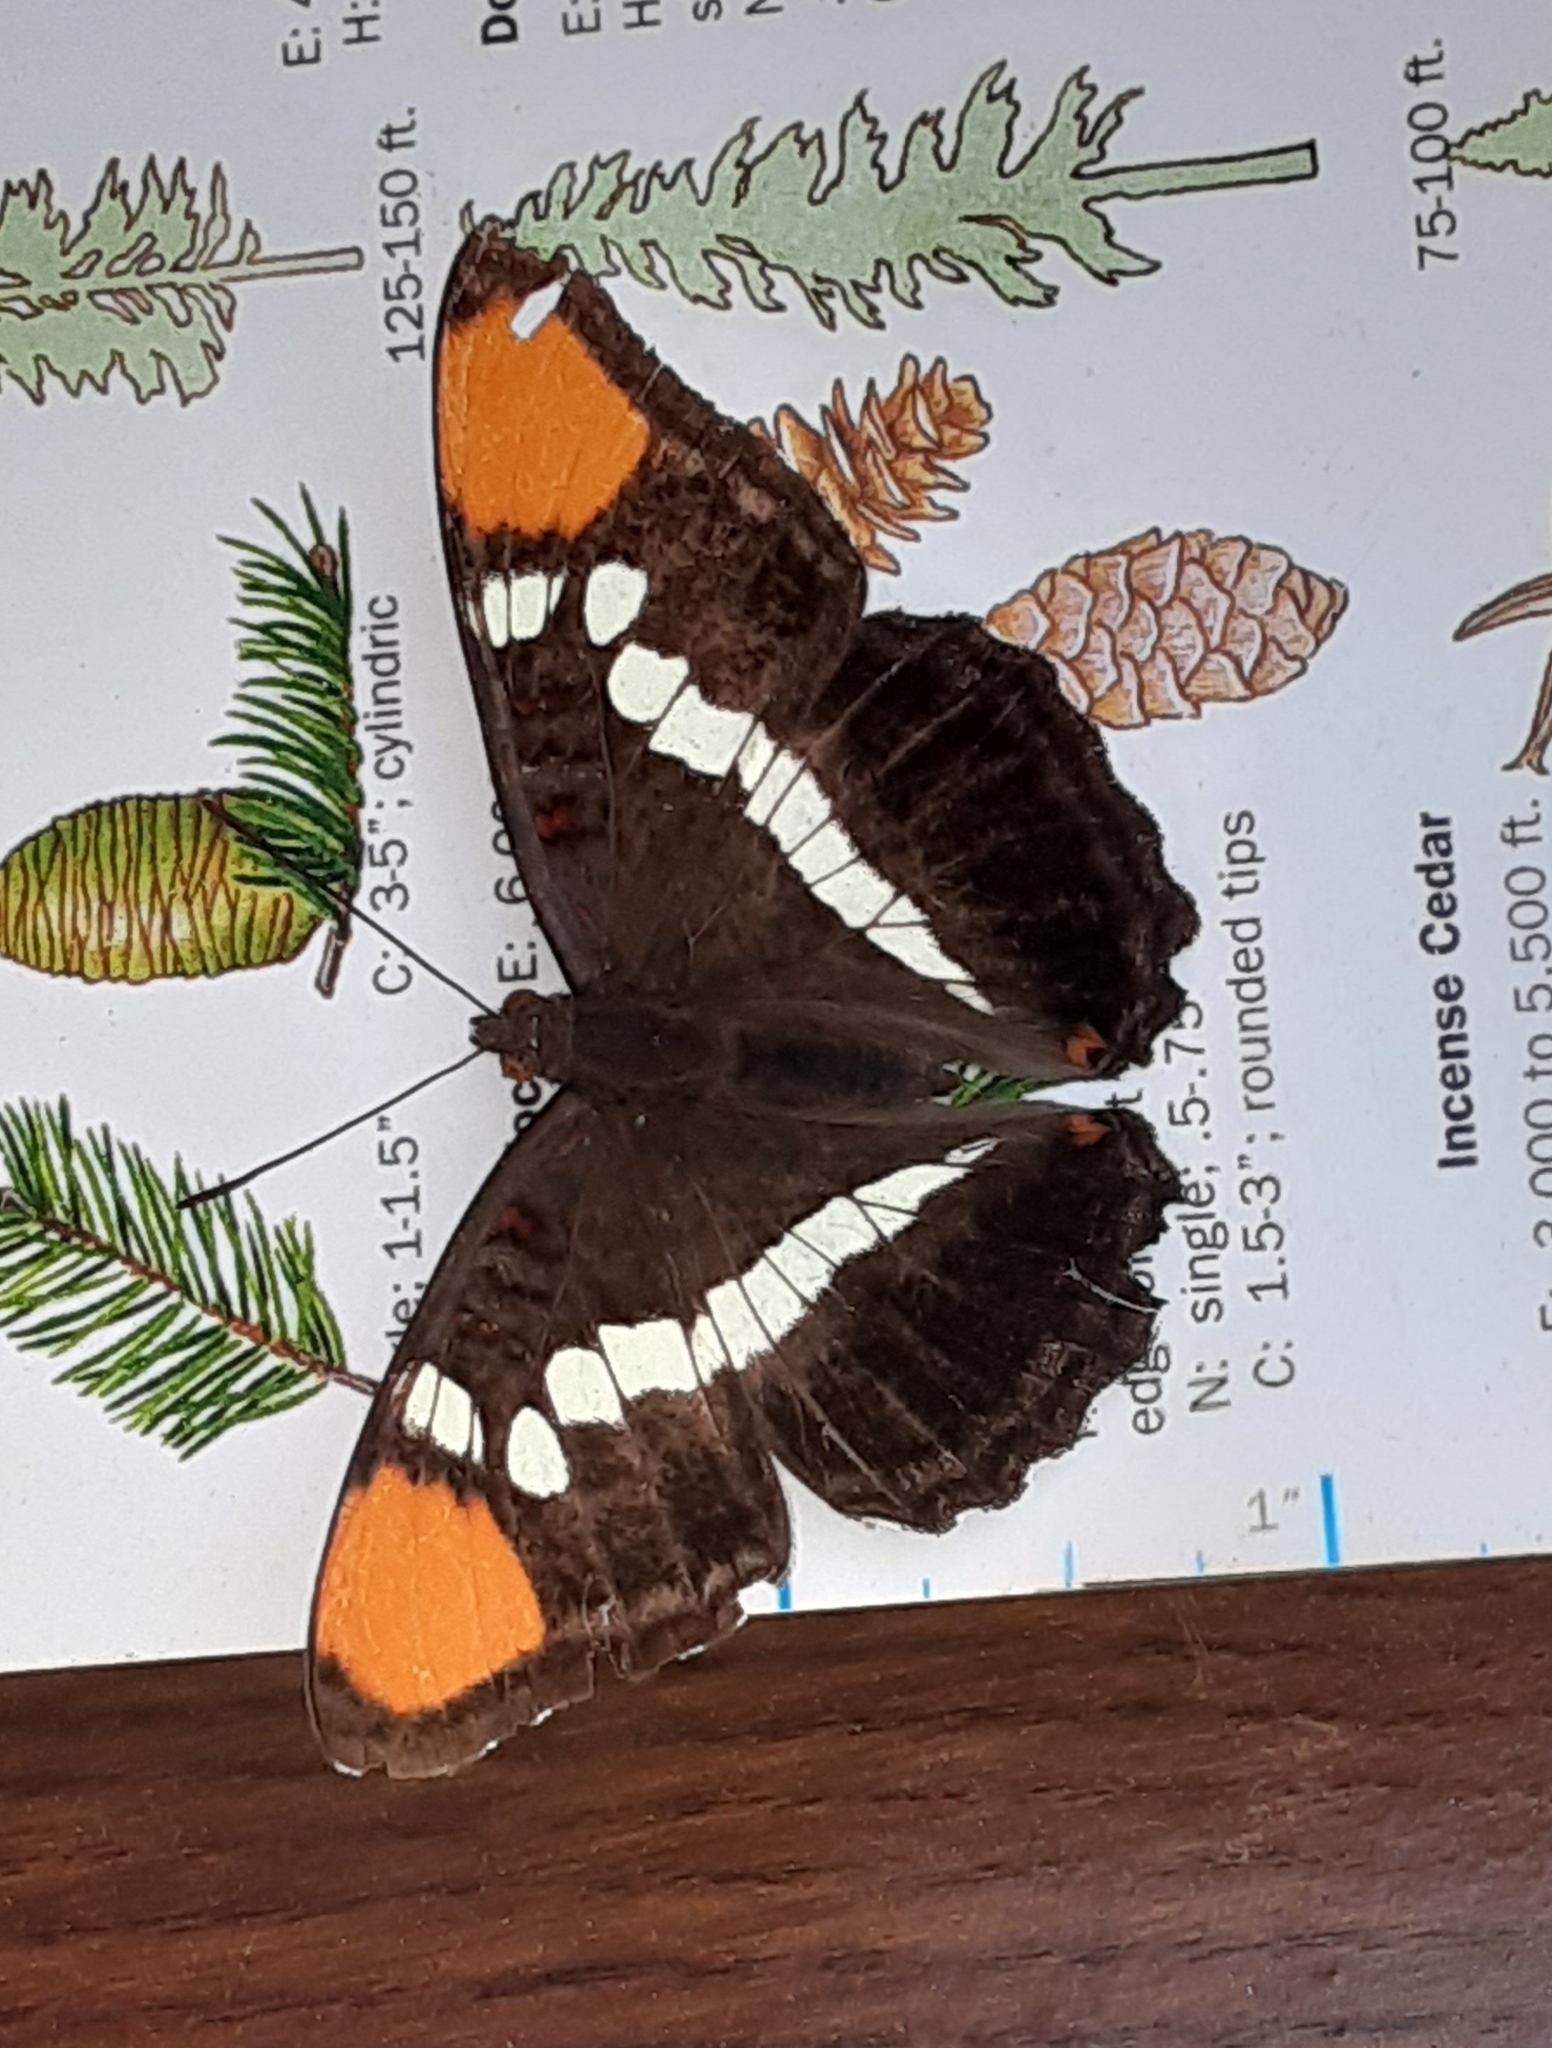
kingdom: Animalia
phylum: Arthropoda
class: Insecta
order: Lepidoptera
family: Nymphalidae
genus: Limenitis
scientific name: Limenitis bredowii
